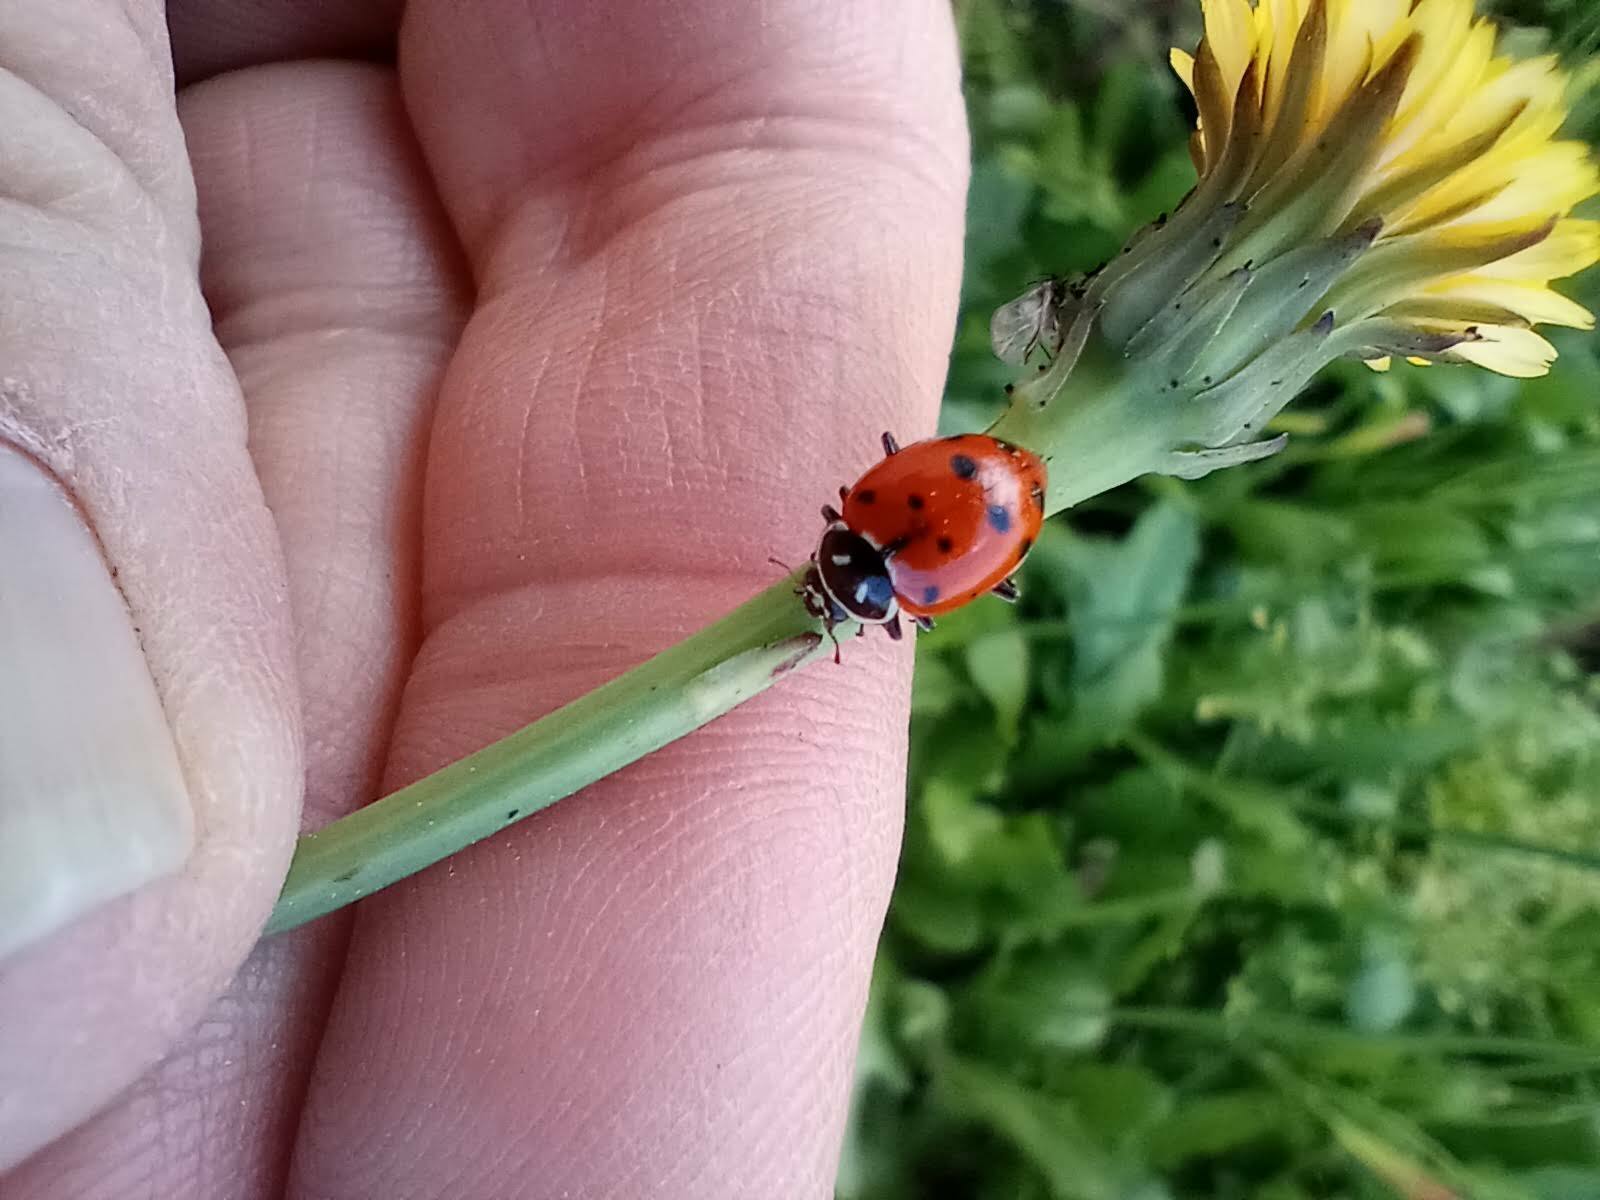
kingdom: Animalia
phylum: Arthropoda
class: Insecta
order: Coleoptera
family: Coccinellidae
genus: Hippodamia
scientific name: Hippodamia convergens
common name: Convergent lady beetle
